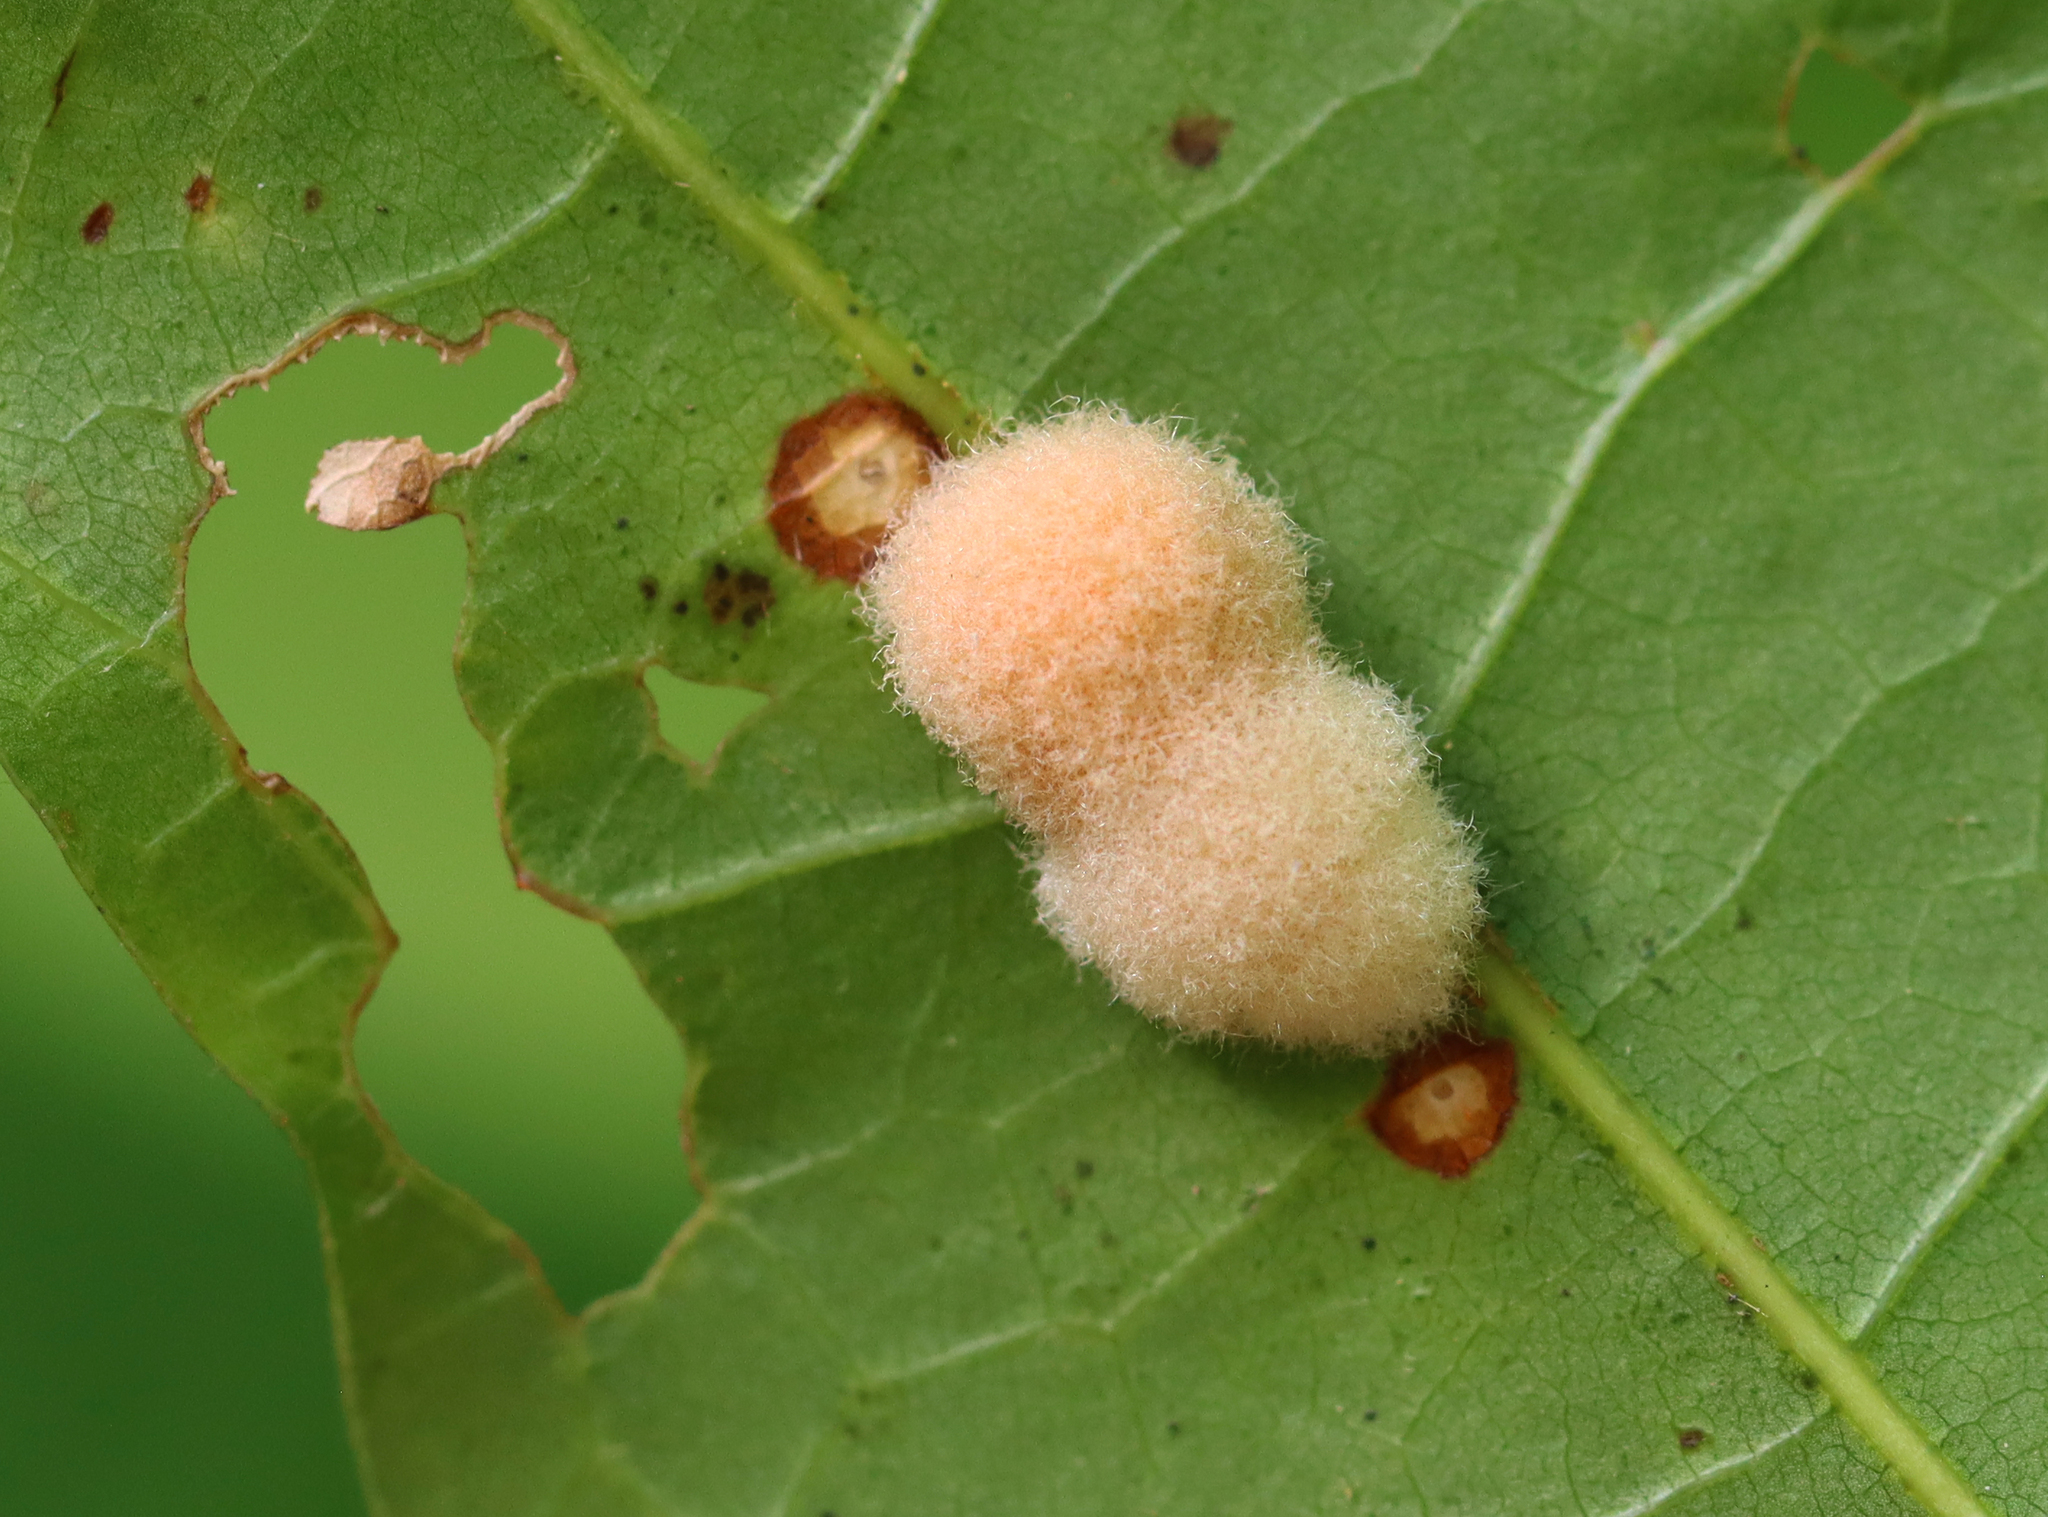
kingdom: Animalia
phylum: Arthropoda
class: Insecta
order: Hymenoptera
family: Cynipidae
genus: Callirhytis
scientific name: Callirhytis
